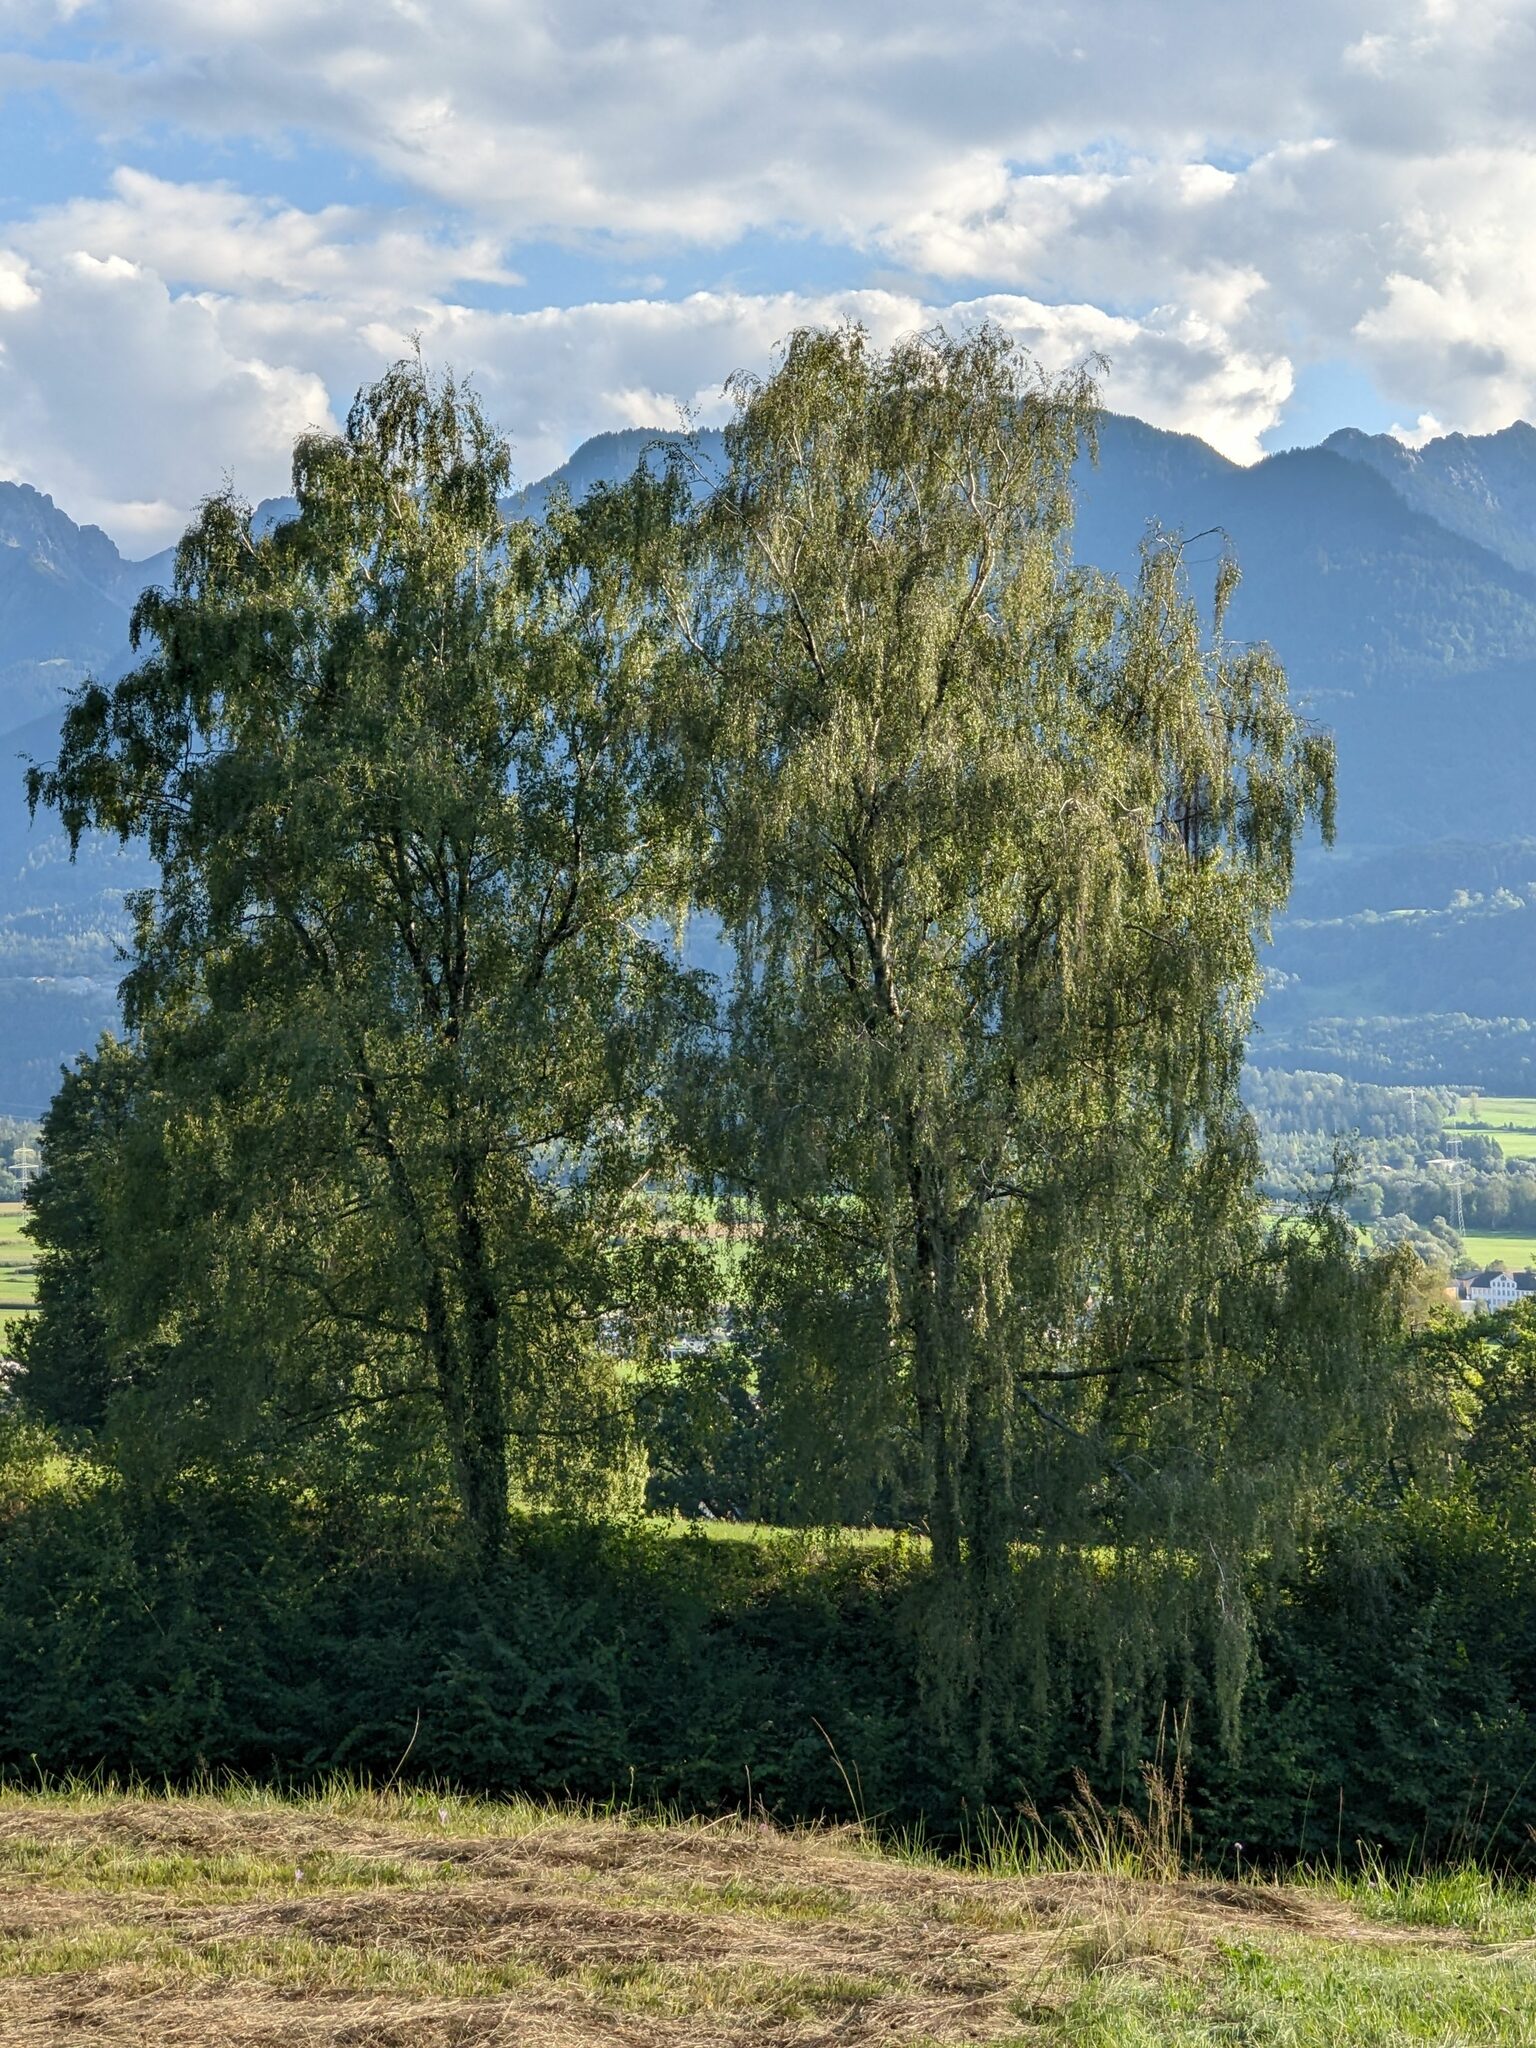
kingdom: Plantae
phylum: Tracheophyta
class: Magnoliopsida
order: Fagales
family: Betulaceae
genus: Betula
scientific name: Betula pendula
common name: Silver birch
